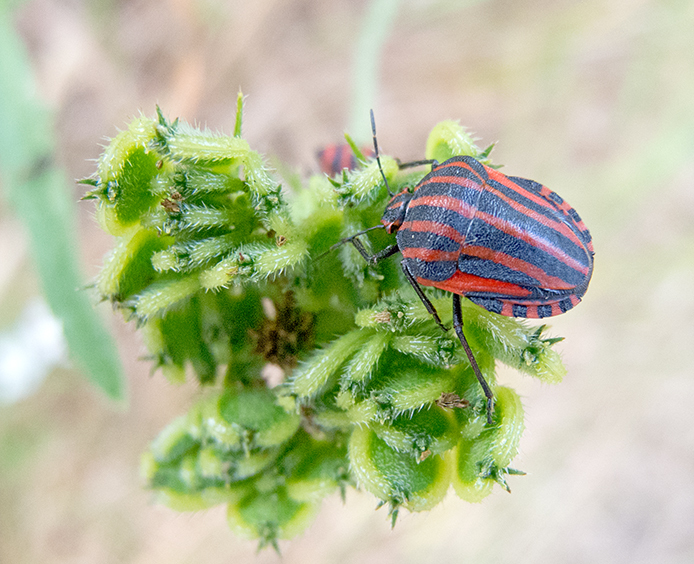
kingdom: Animalia
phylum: Arthropoda
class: Insecta
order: Hemiptera
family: Pentatomidae
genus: Graphosoma
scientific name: Graphosoma italicum
